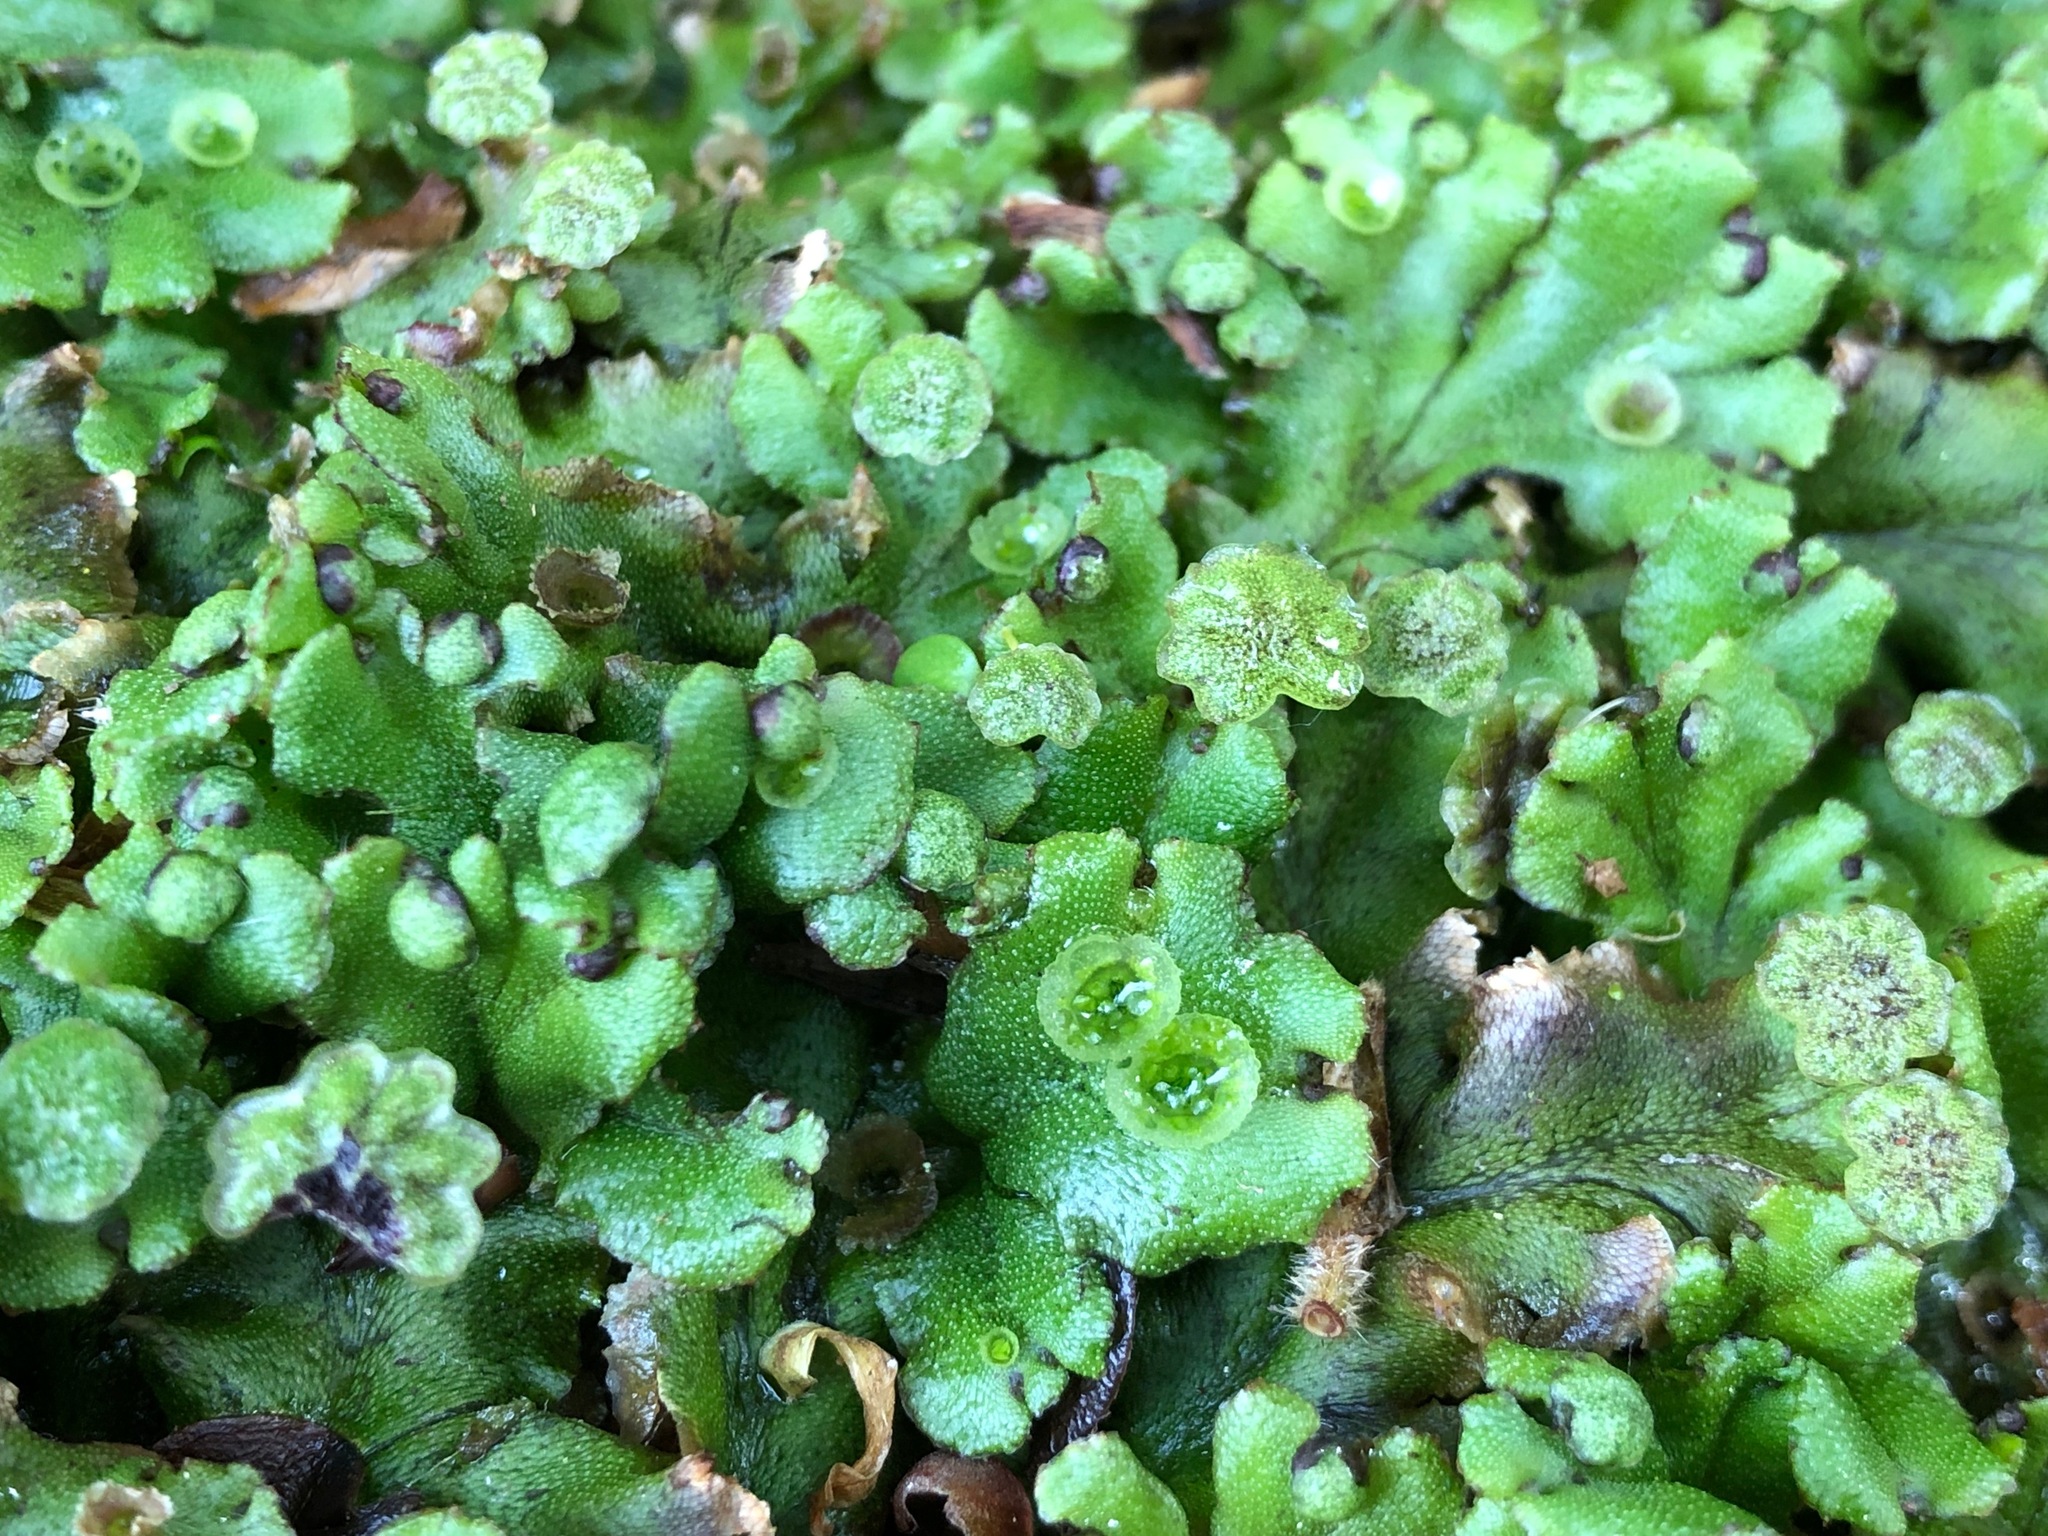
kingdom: Plantae
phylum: Marchantiophyta
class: Marchantiopsida
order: Marchantiales
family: Marchantiaceae
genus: Marchantia
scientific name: Marchantia polymorpha
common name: Common liverwort
